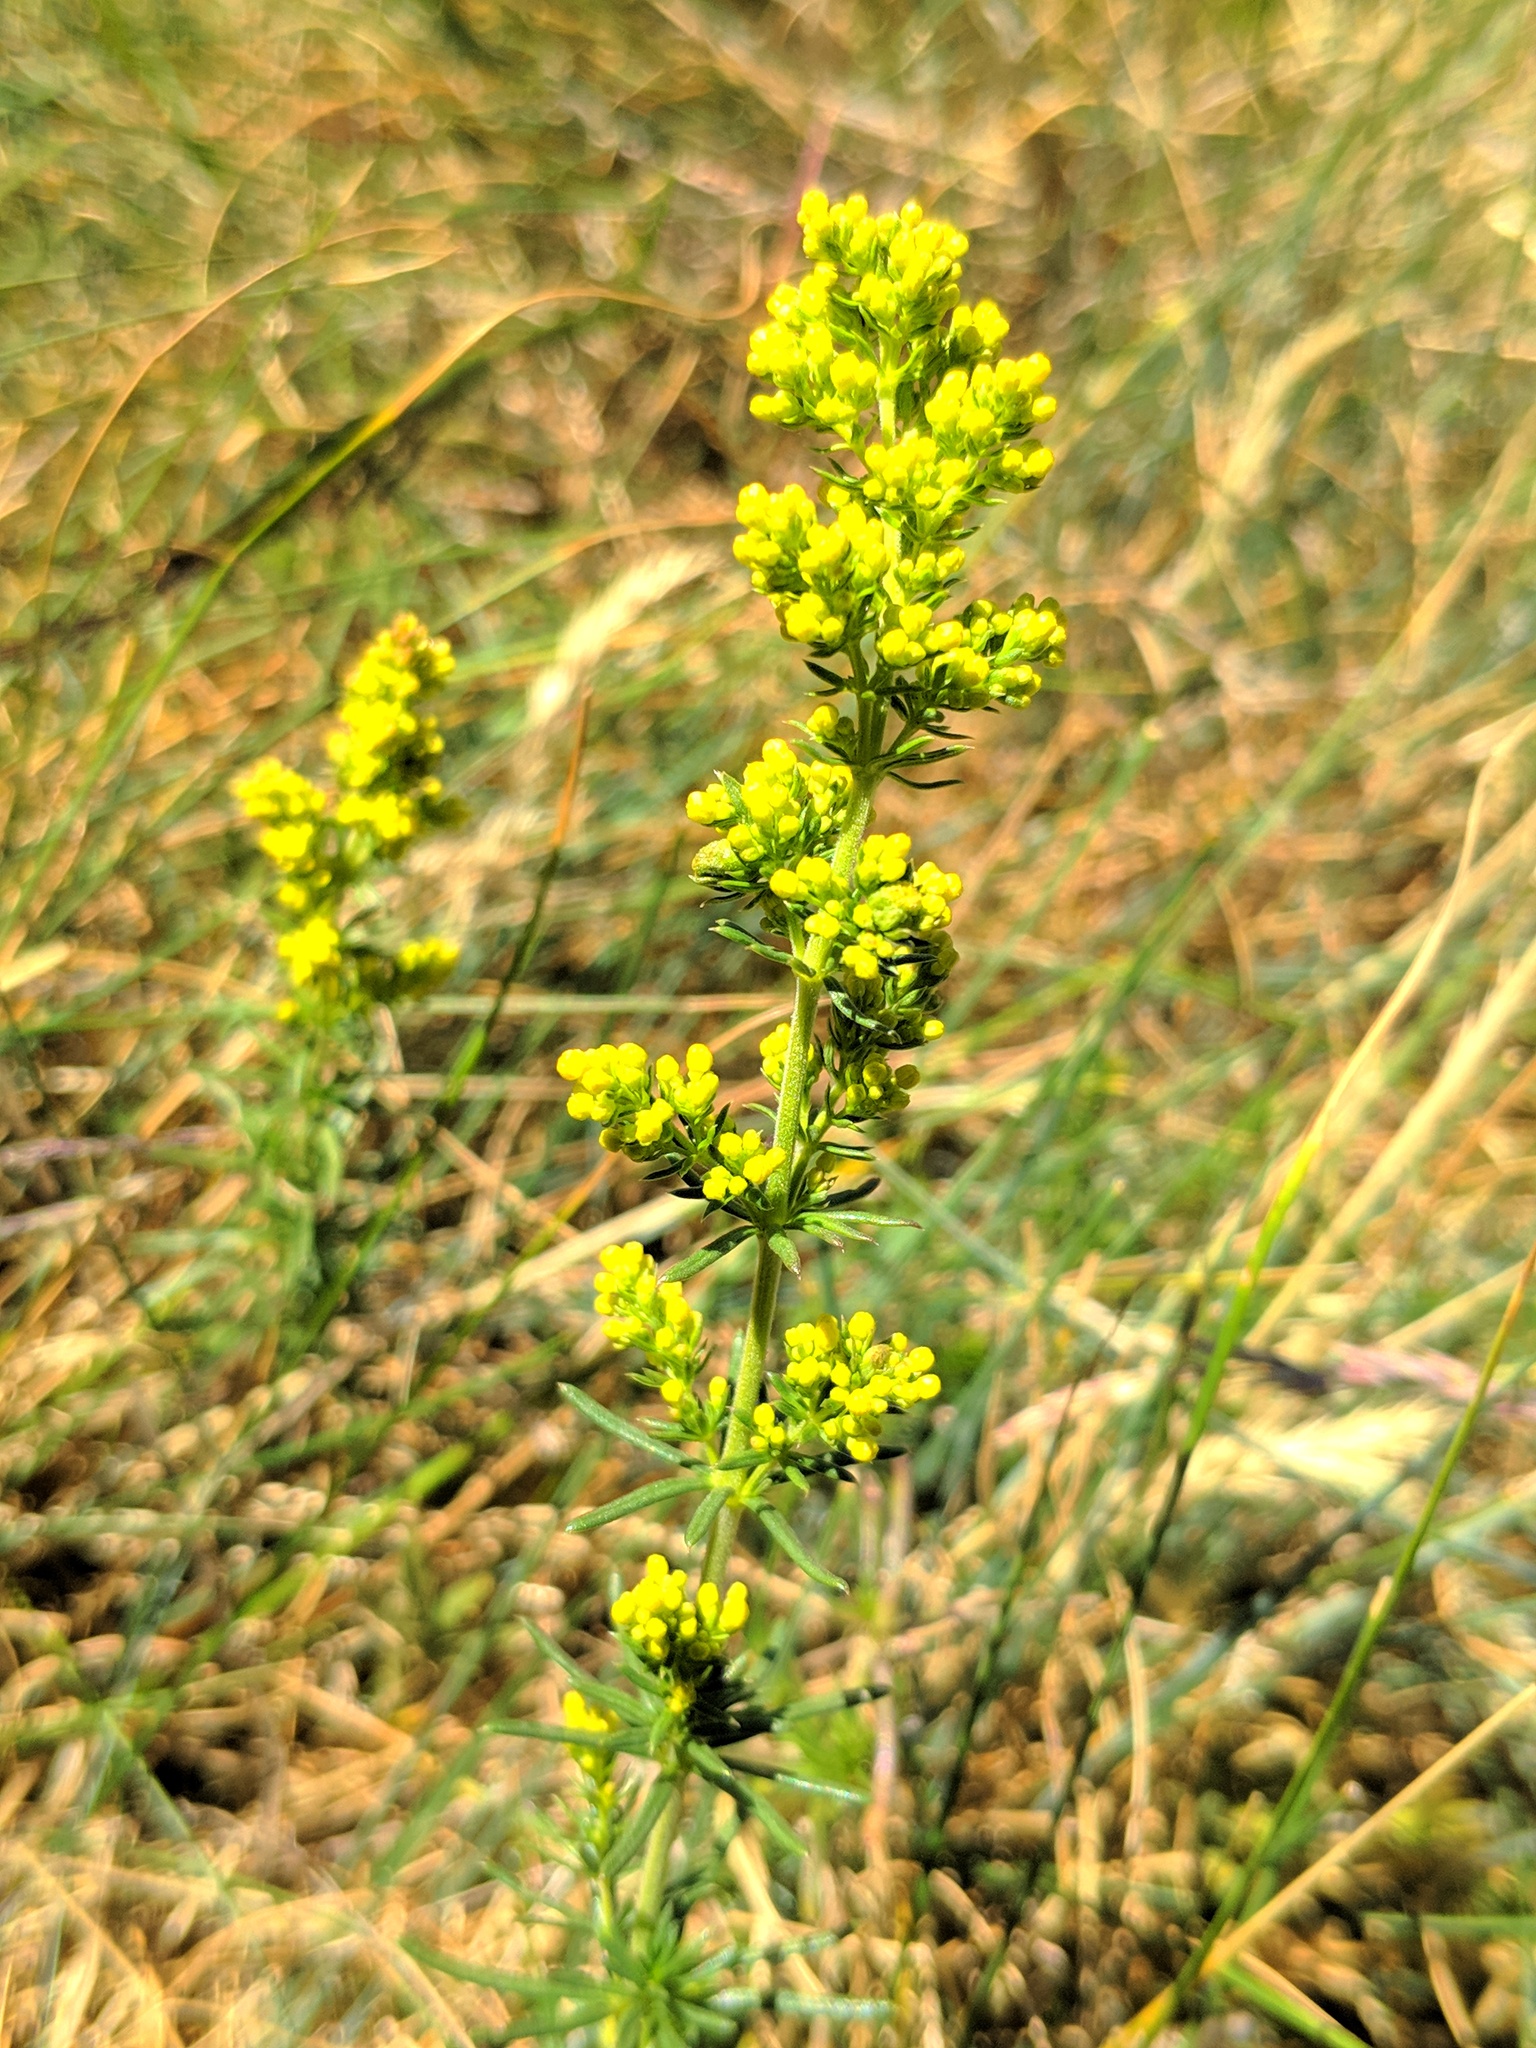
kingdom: Plantae
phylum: Tracheophyta
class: Magnoliopsida
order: Gentianales
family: Rubiaceae
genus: Galium
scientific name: Galium verum
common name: Lady's bedstraw
